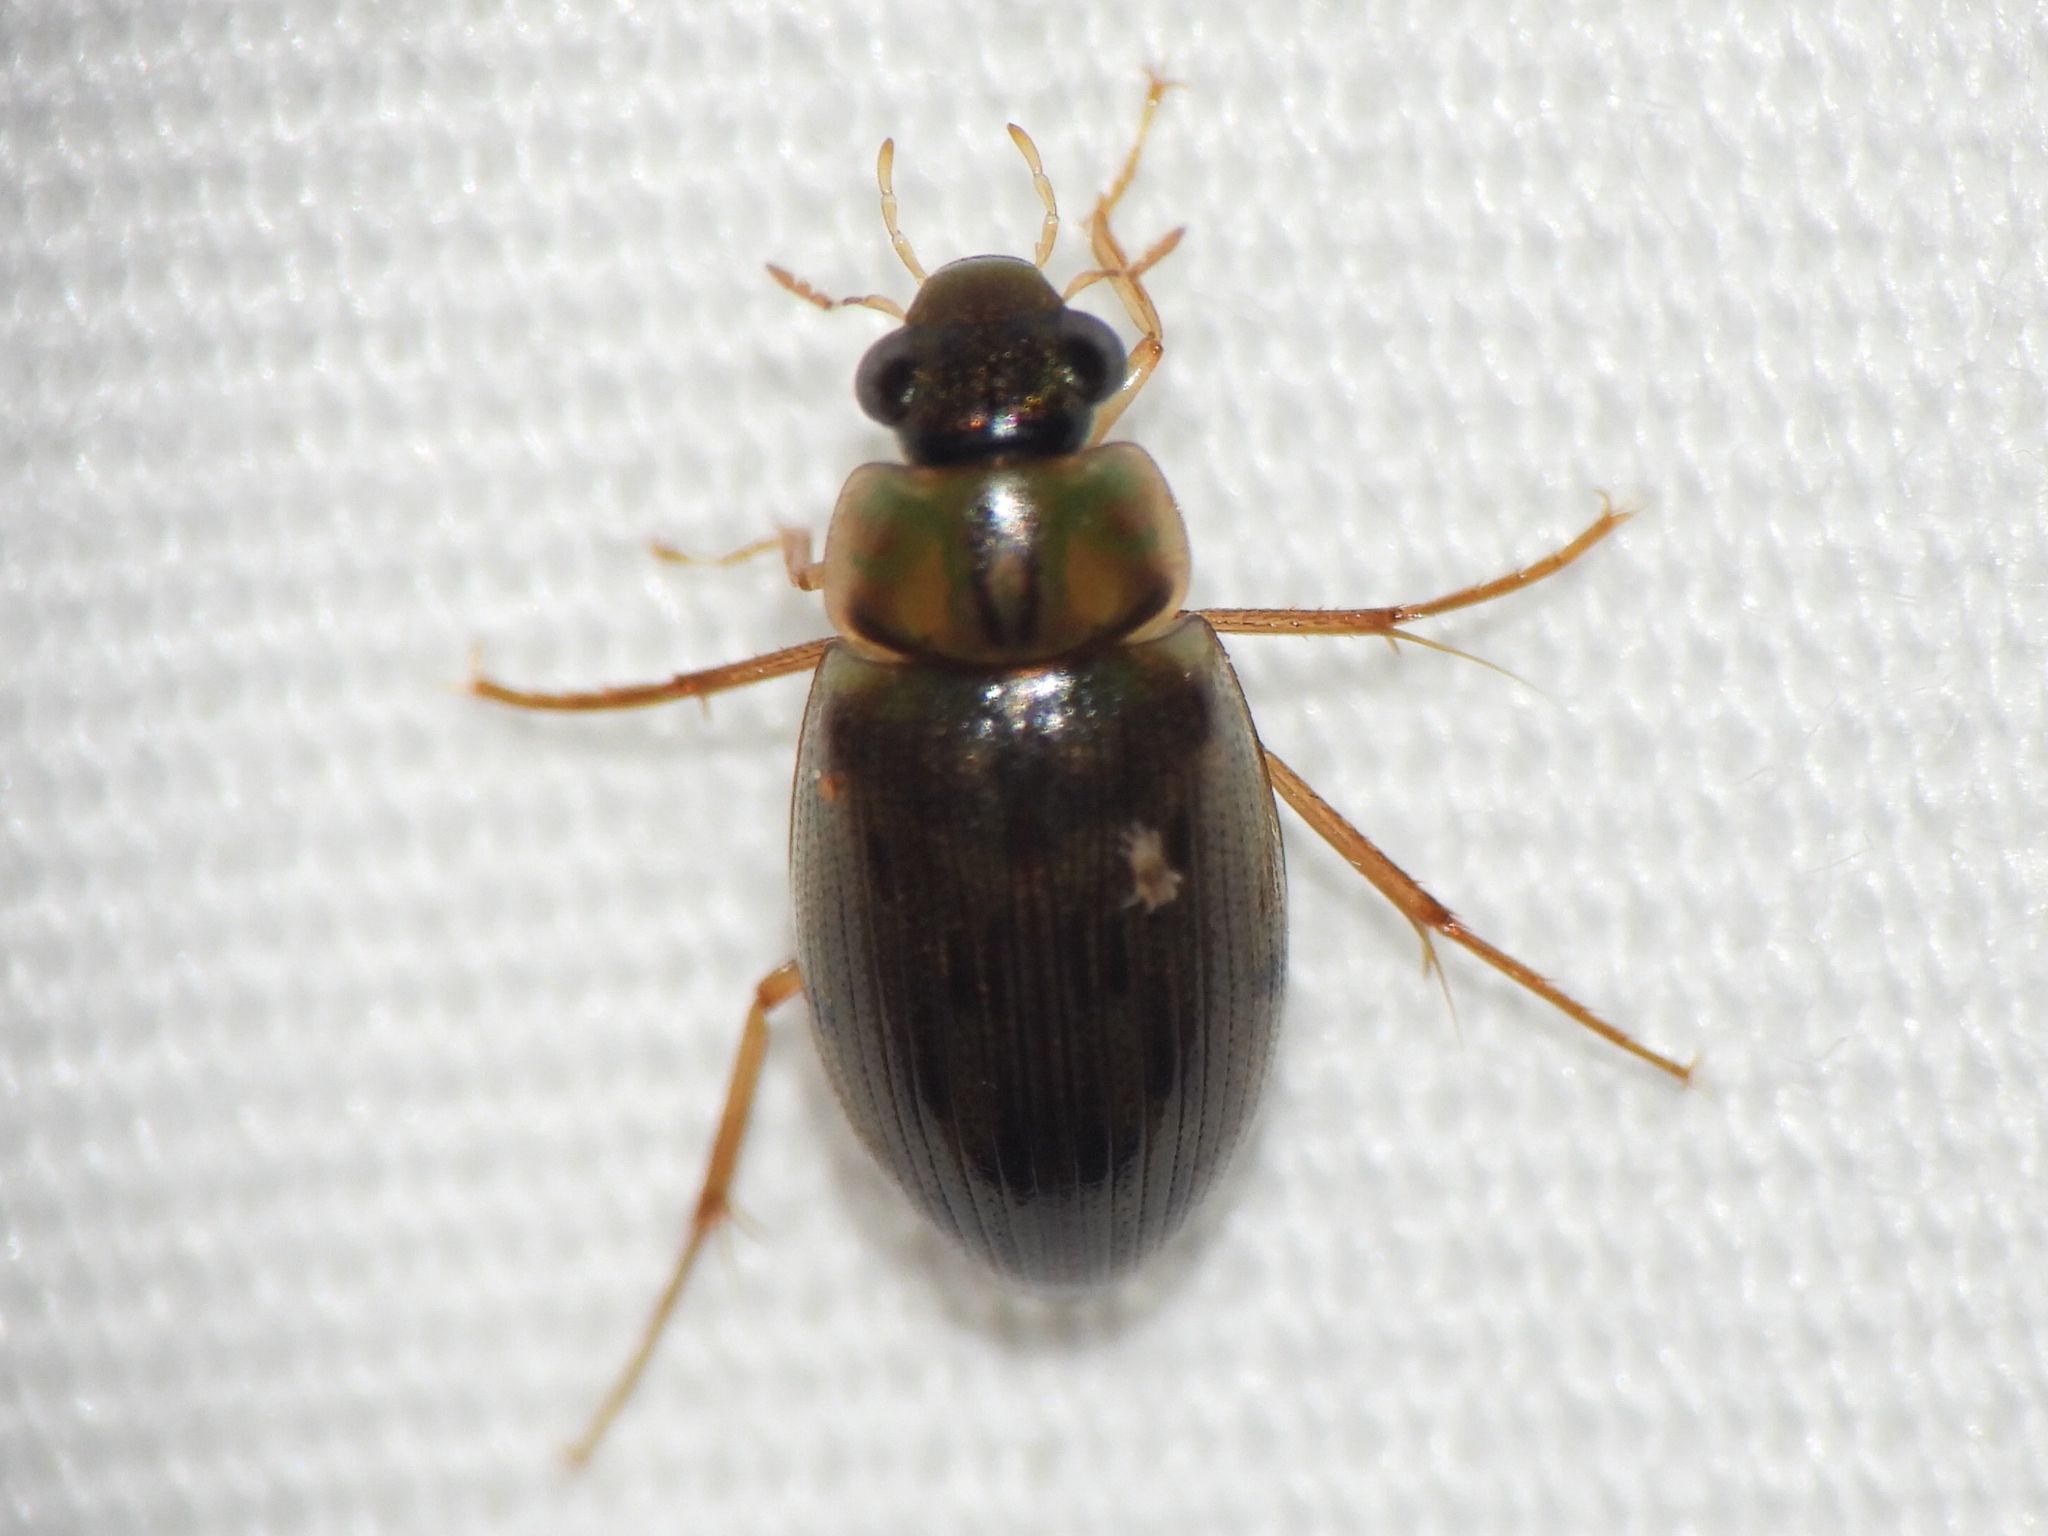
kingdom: Animalia
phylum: Arthropoda
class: Insecta
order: Coleoptera
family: Hydrophilidae
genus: Berosus
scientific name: Berosus
